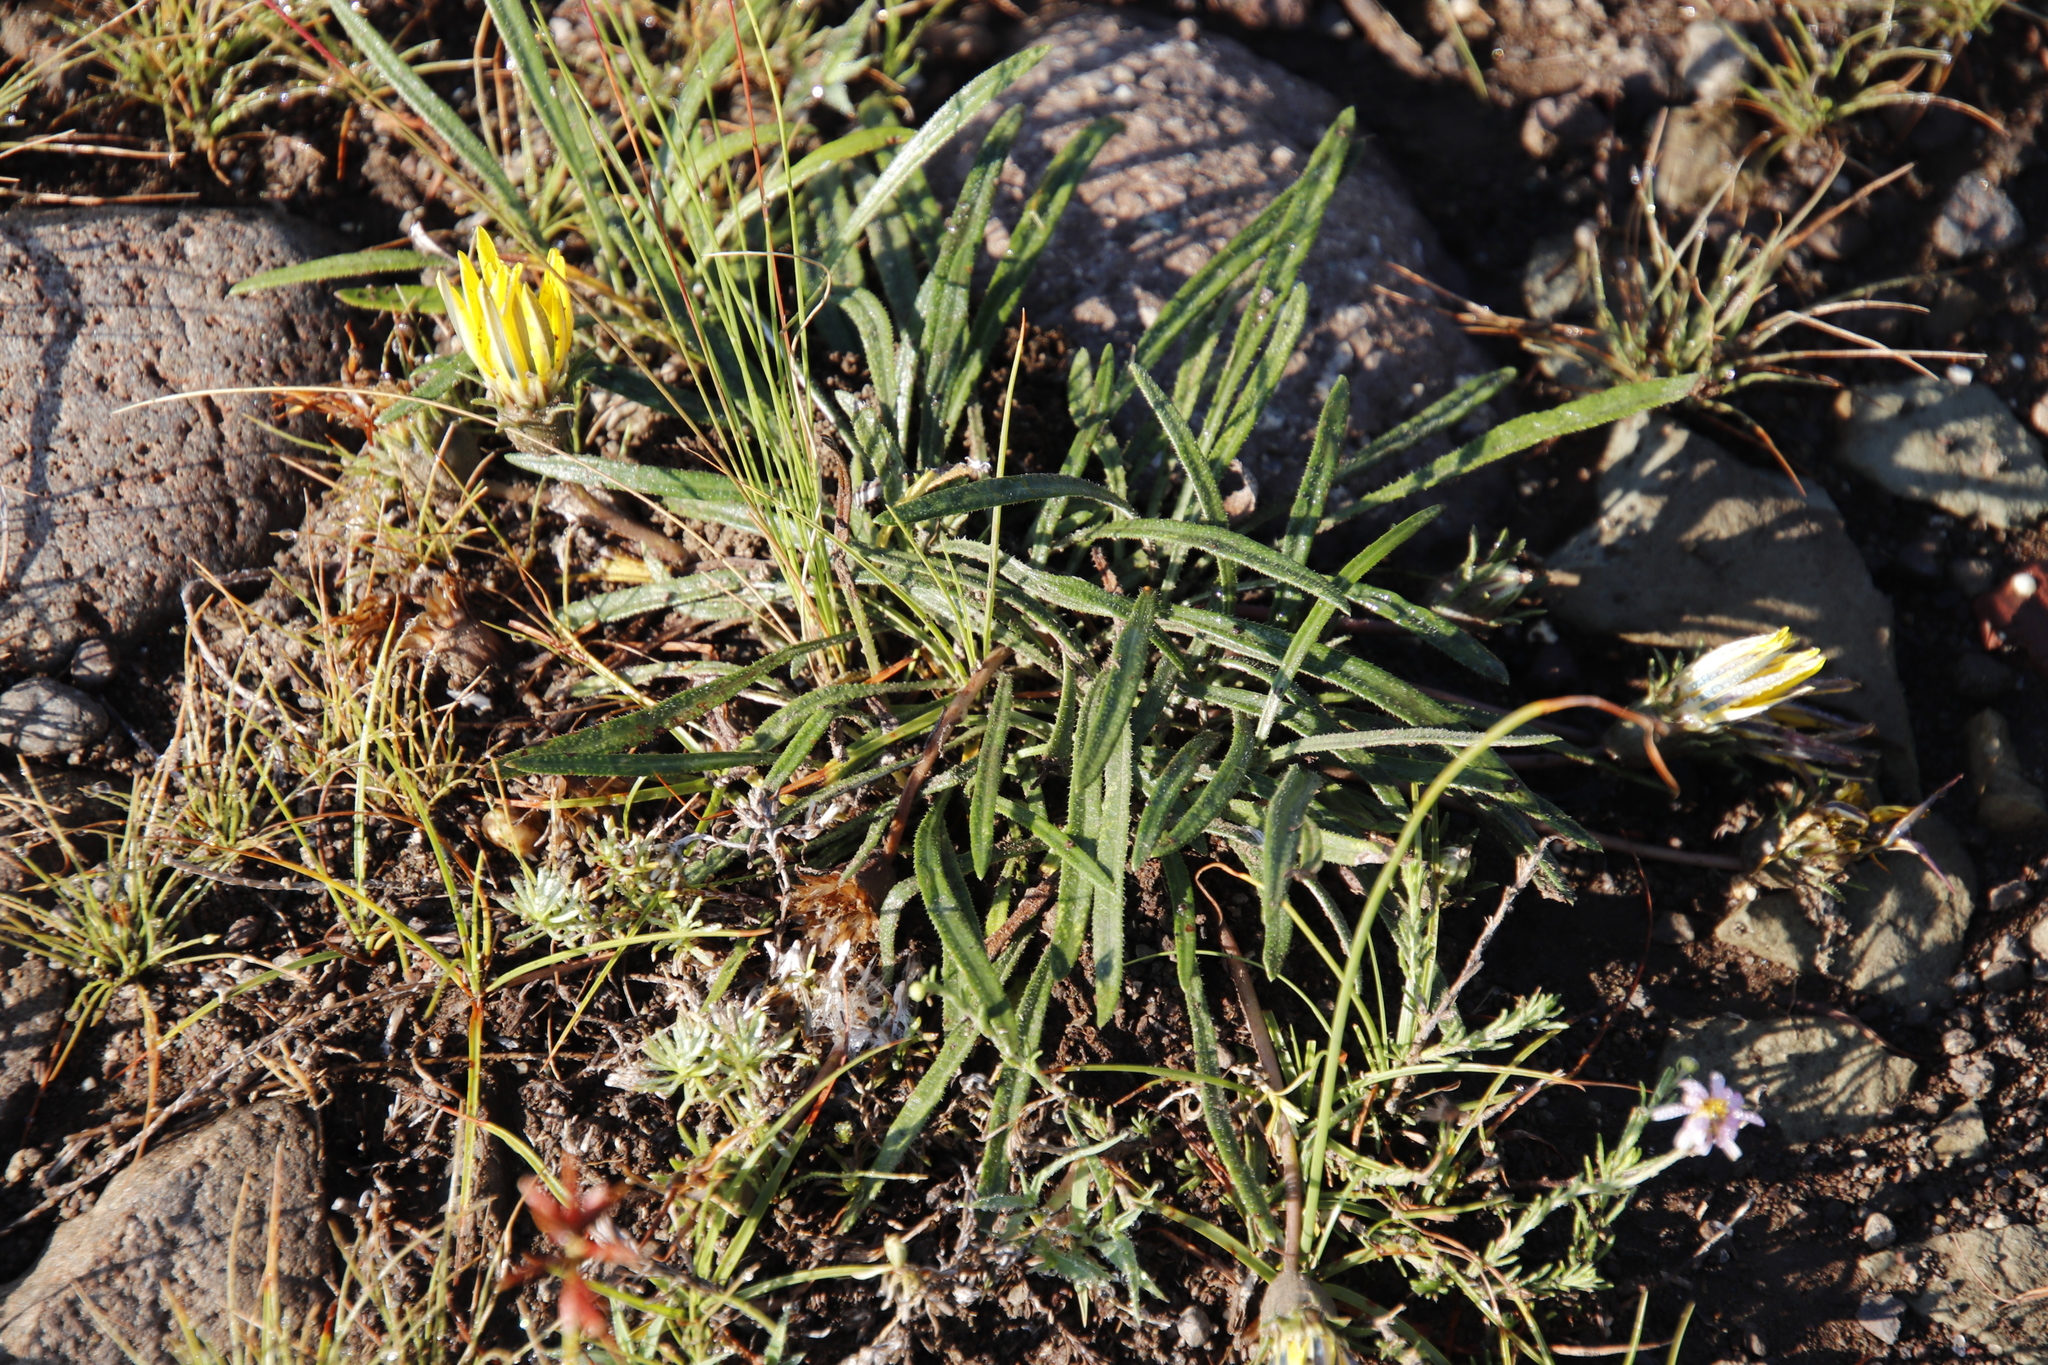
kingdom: Plantae
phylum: Tracheophyta
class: Magnoliopsida
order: Asterales
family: Asteraceae
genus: Gazania
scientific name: Gazania krebsiana
